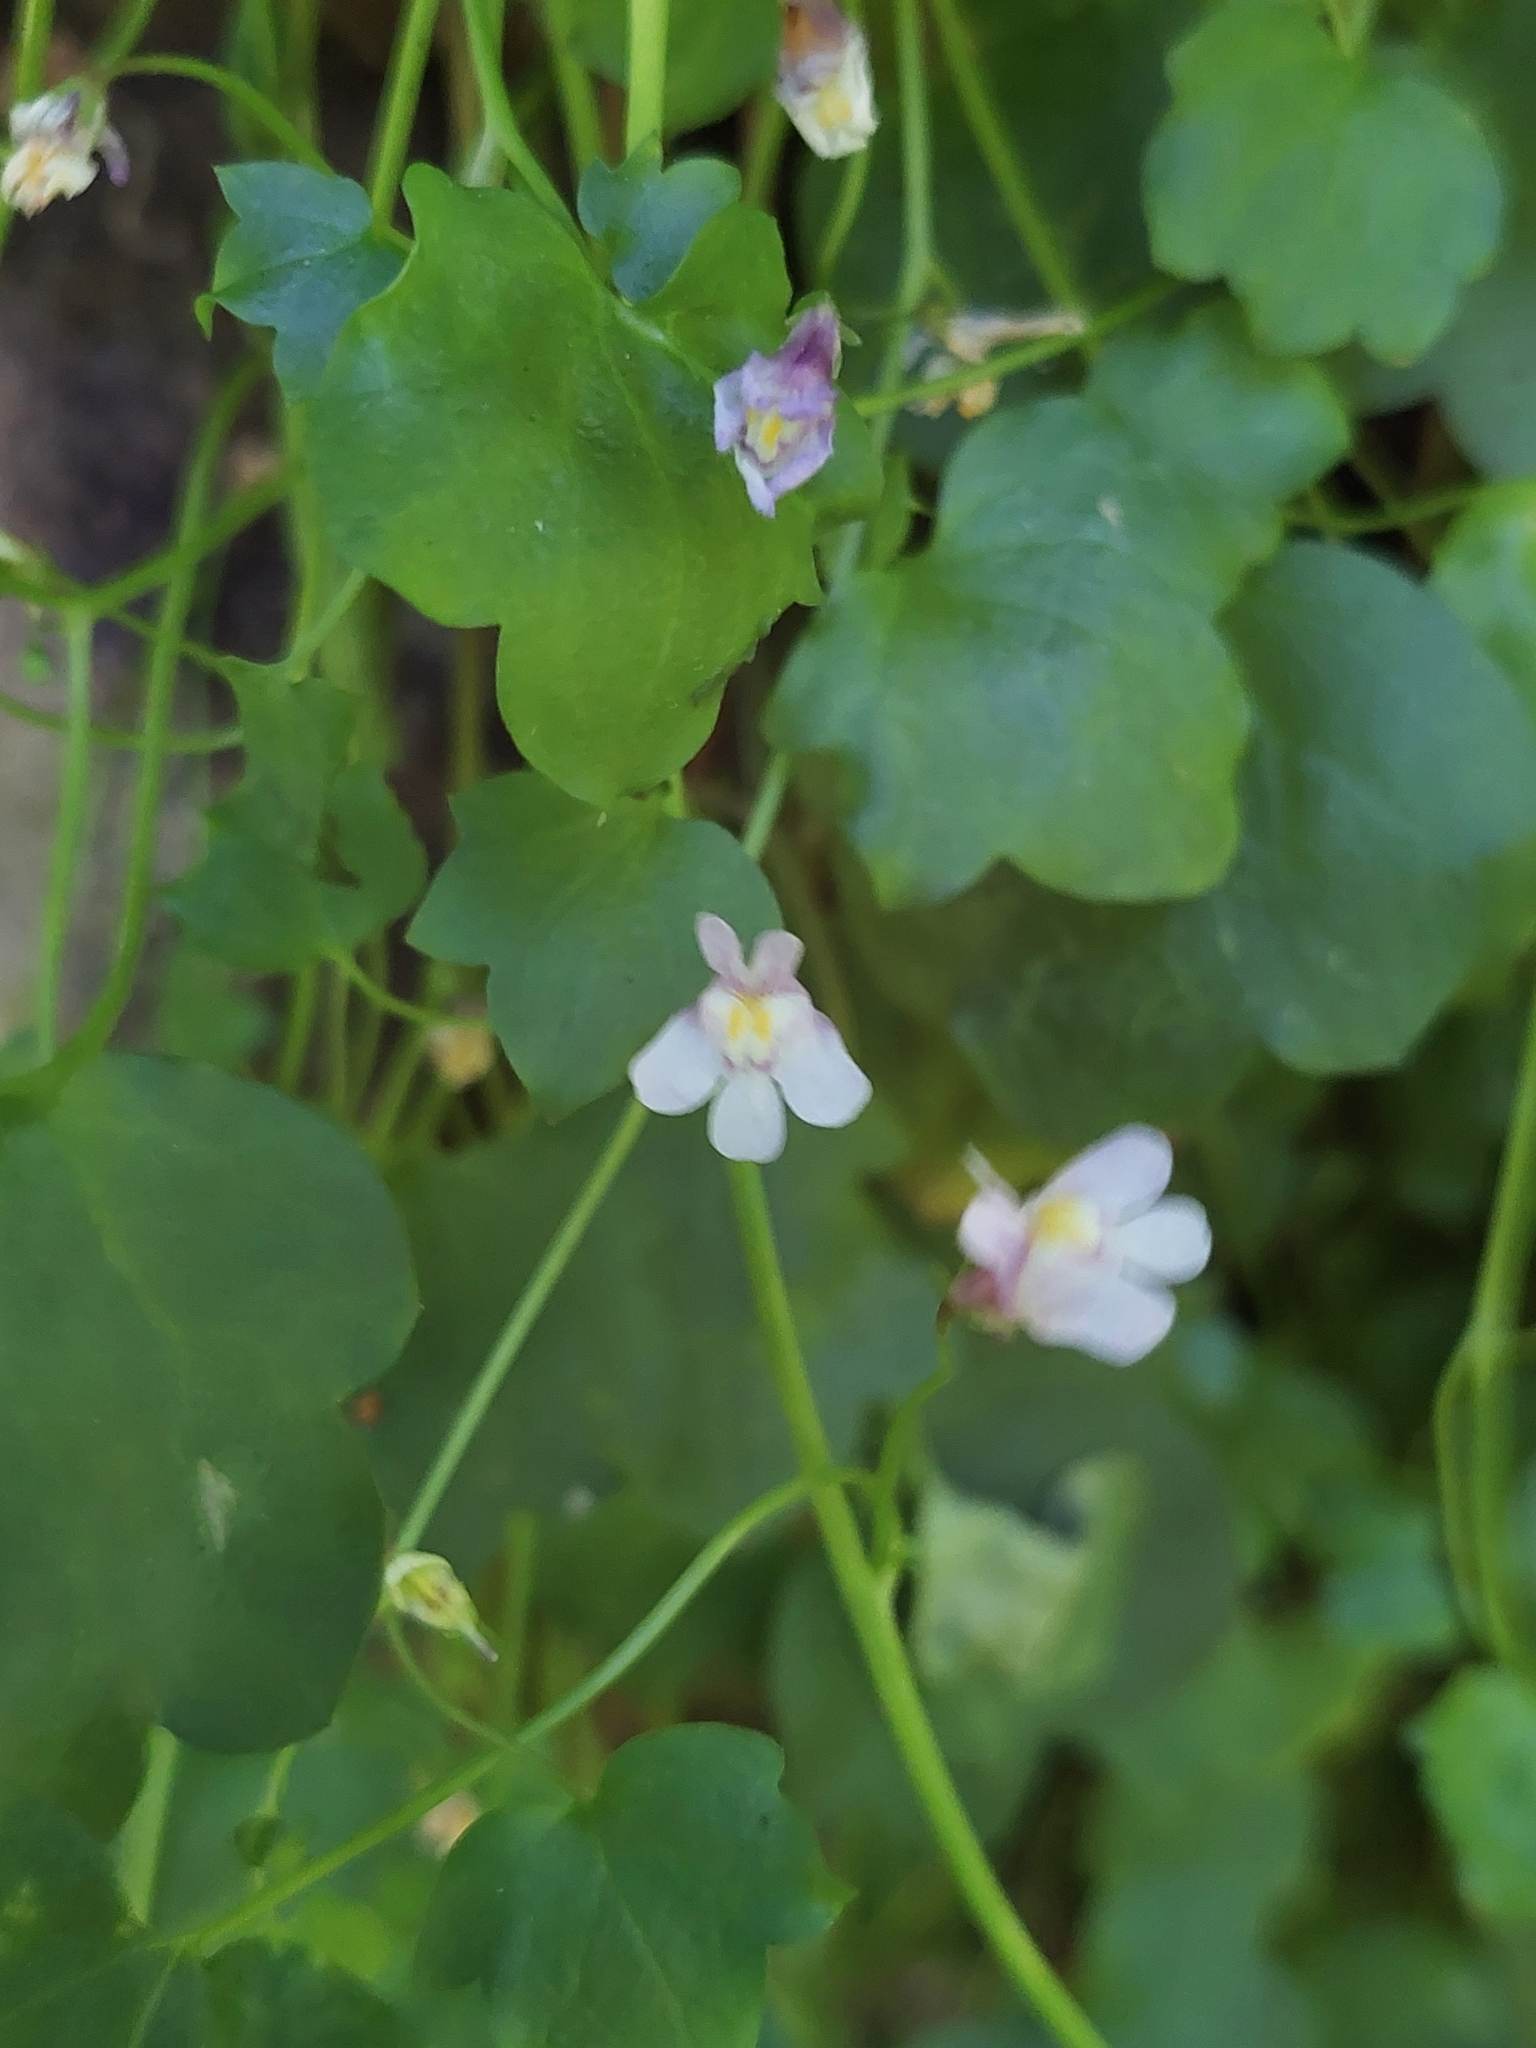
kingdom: Plantae
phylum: Tracheophyta
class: Magnoliopsida
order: Lamiales
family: Plantaginaceae
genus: Cymbalaria
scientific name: Cymbalaria muralis
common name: Ivy-leaved toadflax
